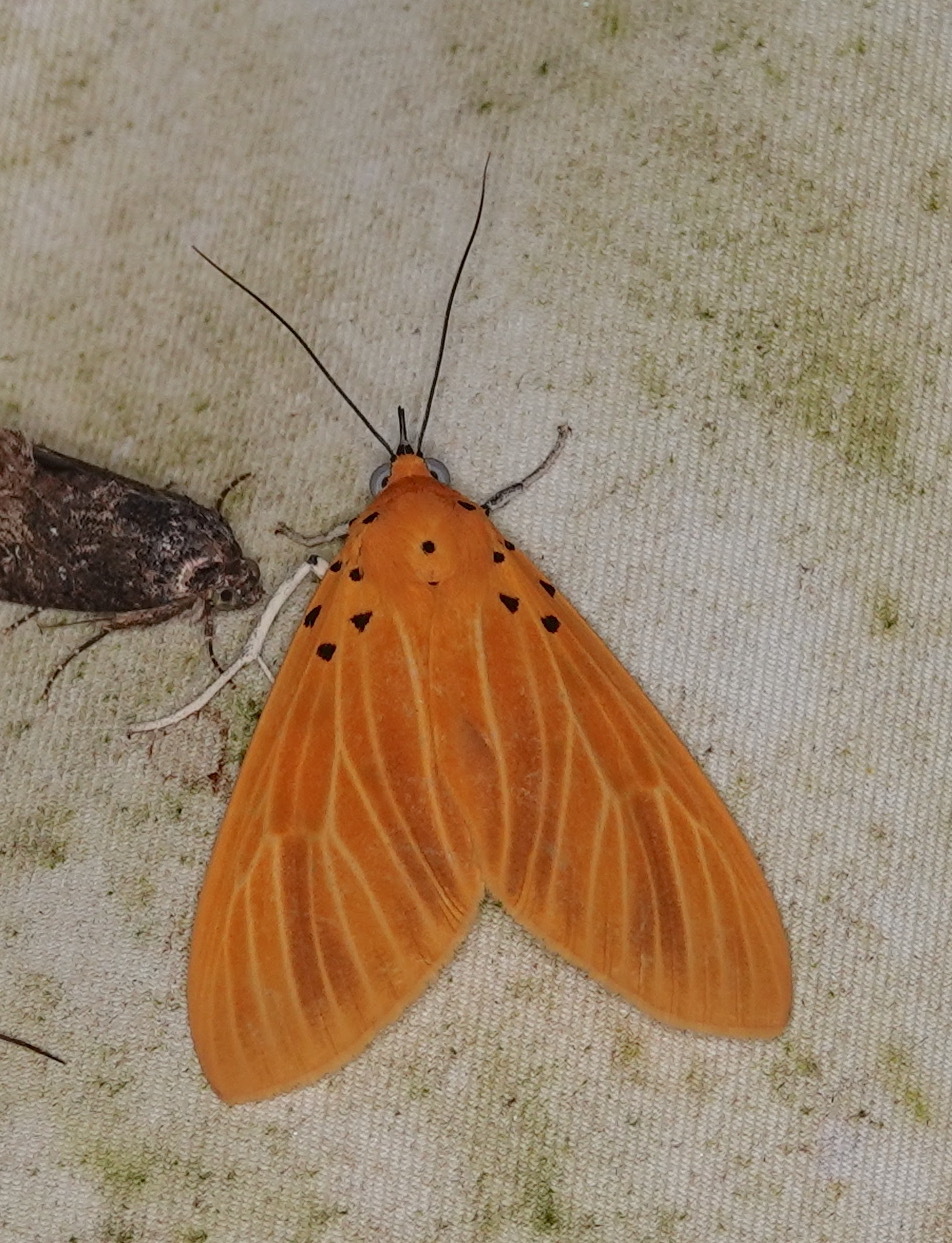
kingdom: Animalia
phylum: Arthropoda
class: Insecta
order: Lepidoptera
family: Erebidae
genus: Asota
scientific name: Asota egens
